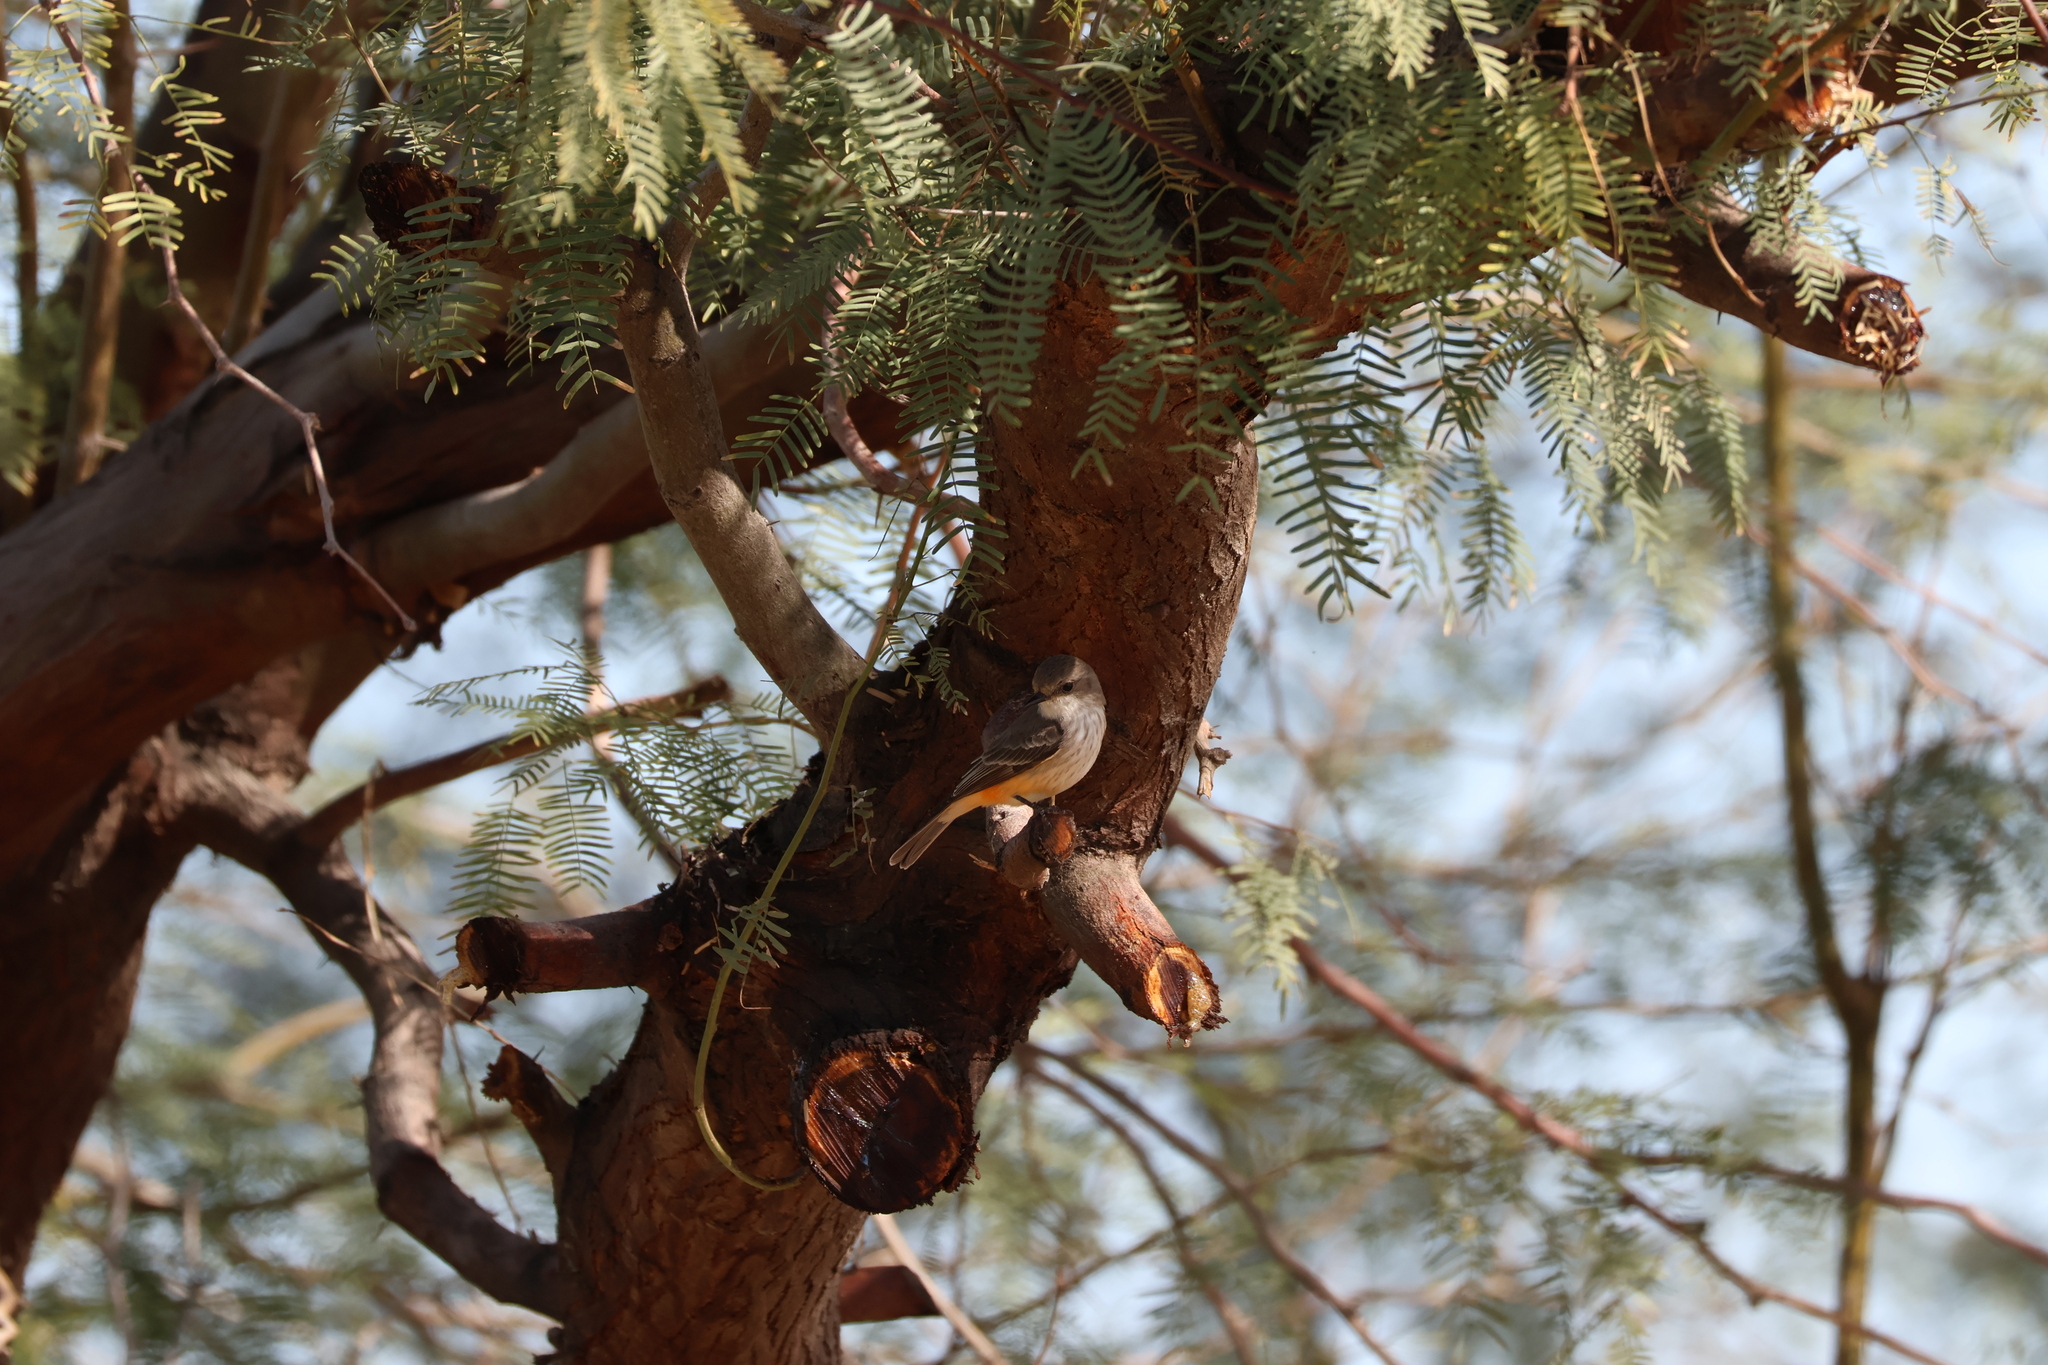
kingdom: Animalia
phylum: Chordata
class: Aves
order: Passeriformes
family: Tyrannidae
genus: Pyrocephalus
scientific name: Pyrocephalus rubinus
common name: Vermilion flycatcher
